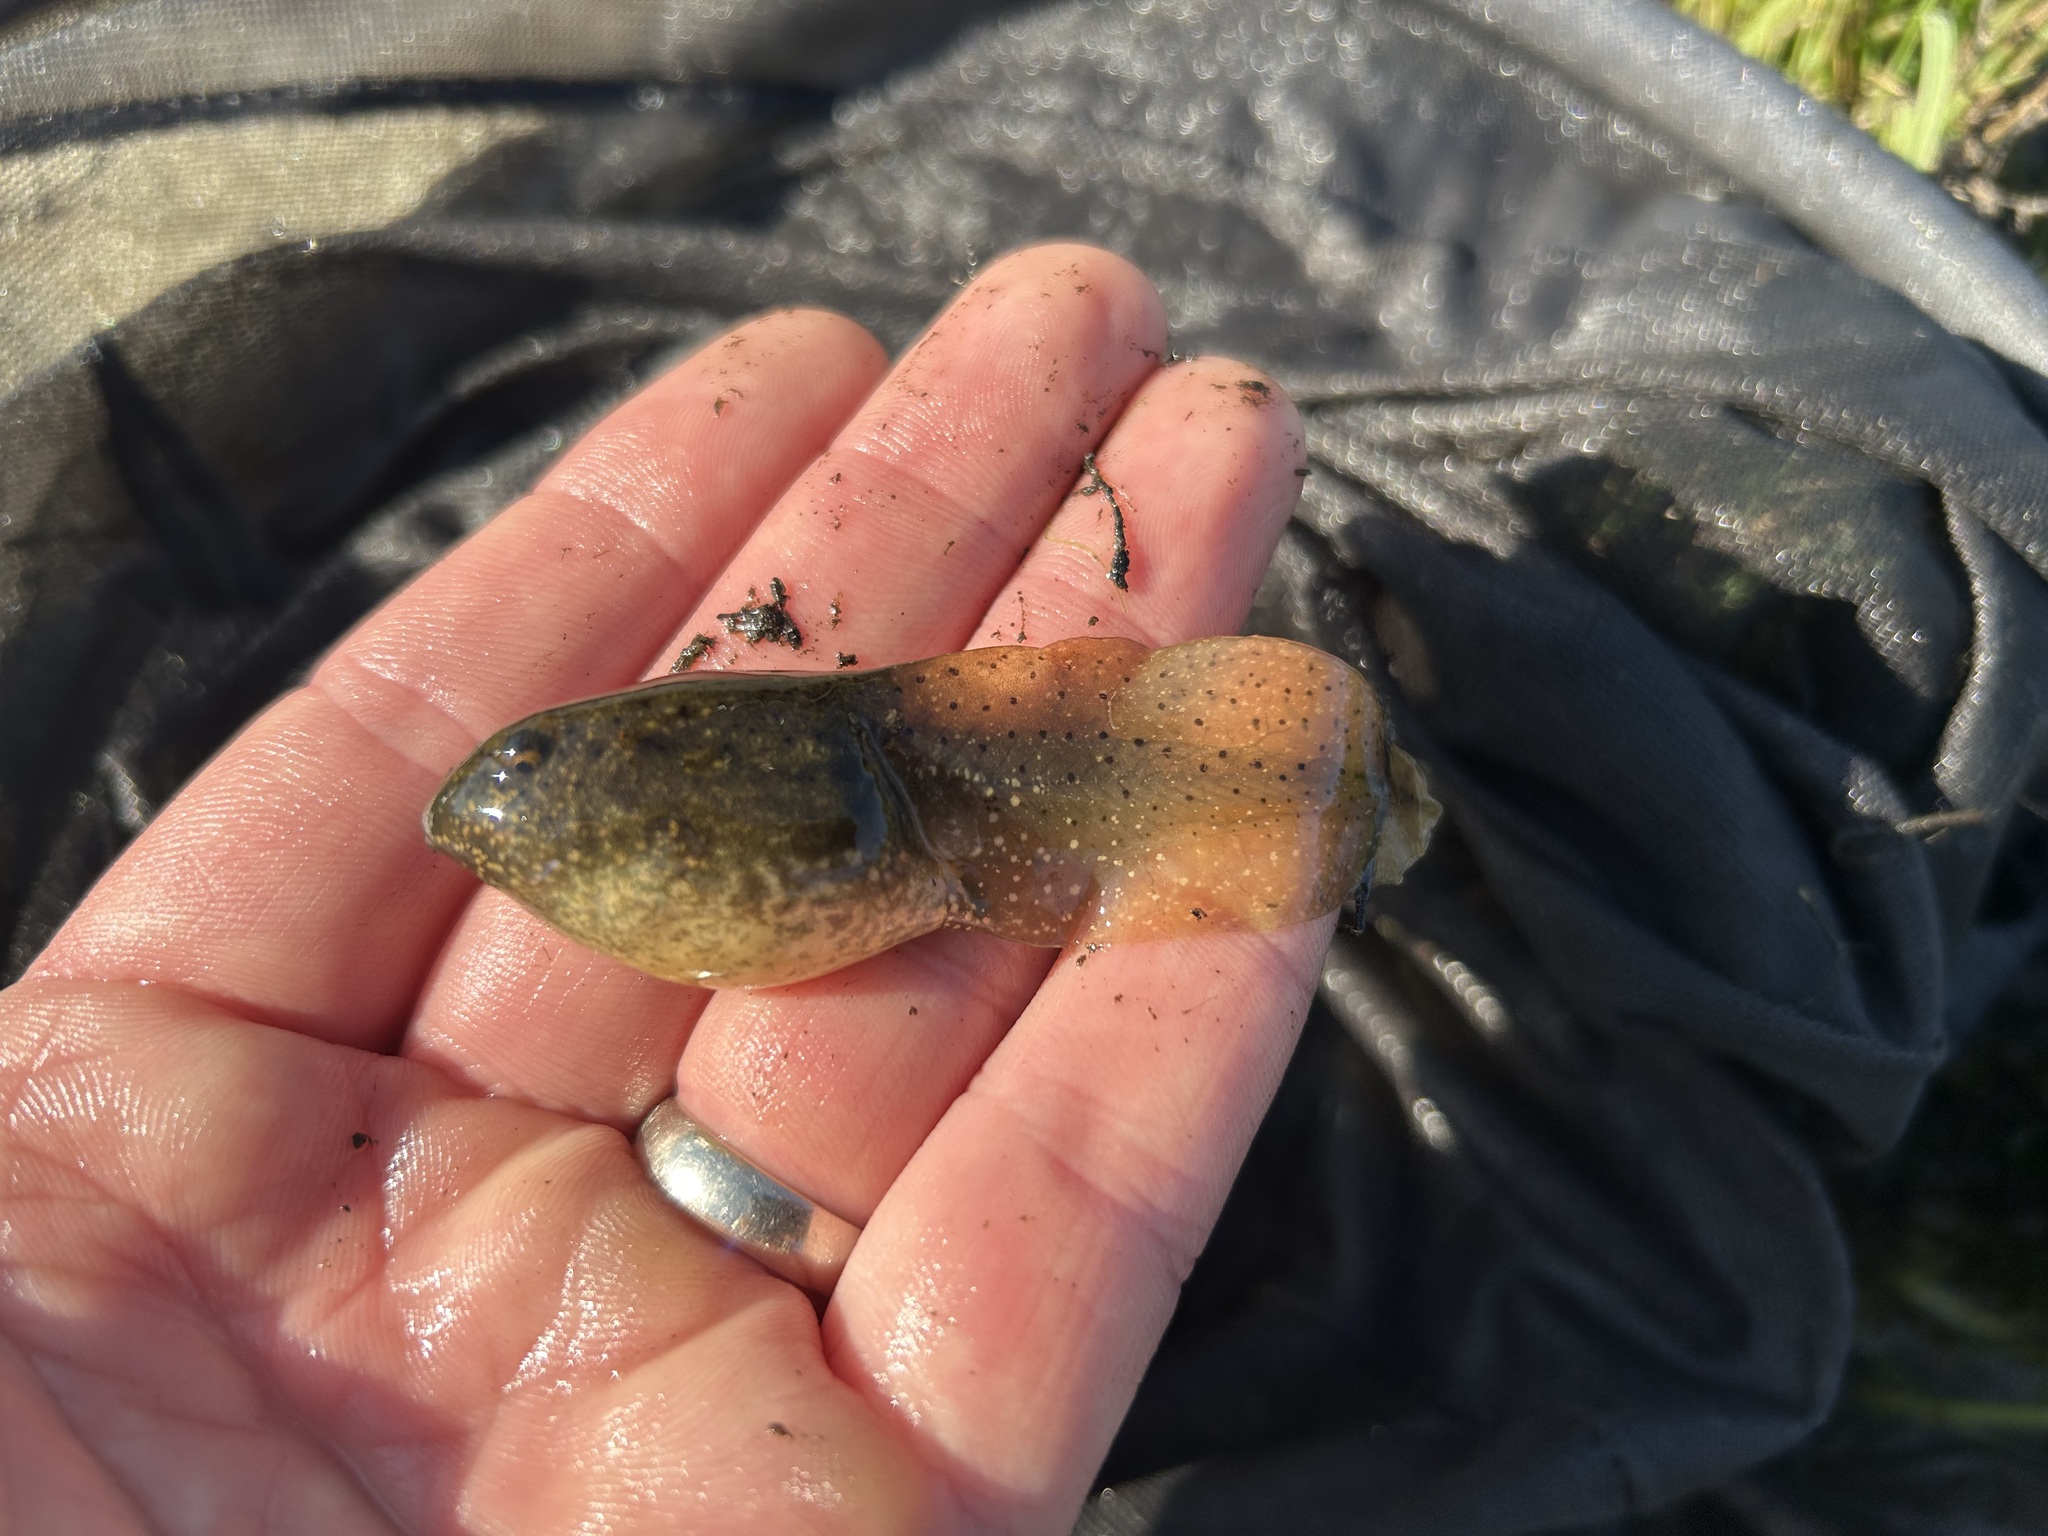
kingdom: Animalia
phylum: Chordata
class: Amphibia
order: Anura
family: Ranidae
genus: Lithobates
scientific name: Lithobates catesbeianus
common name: American bullfrog
